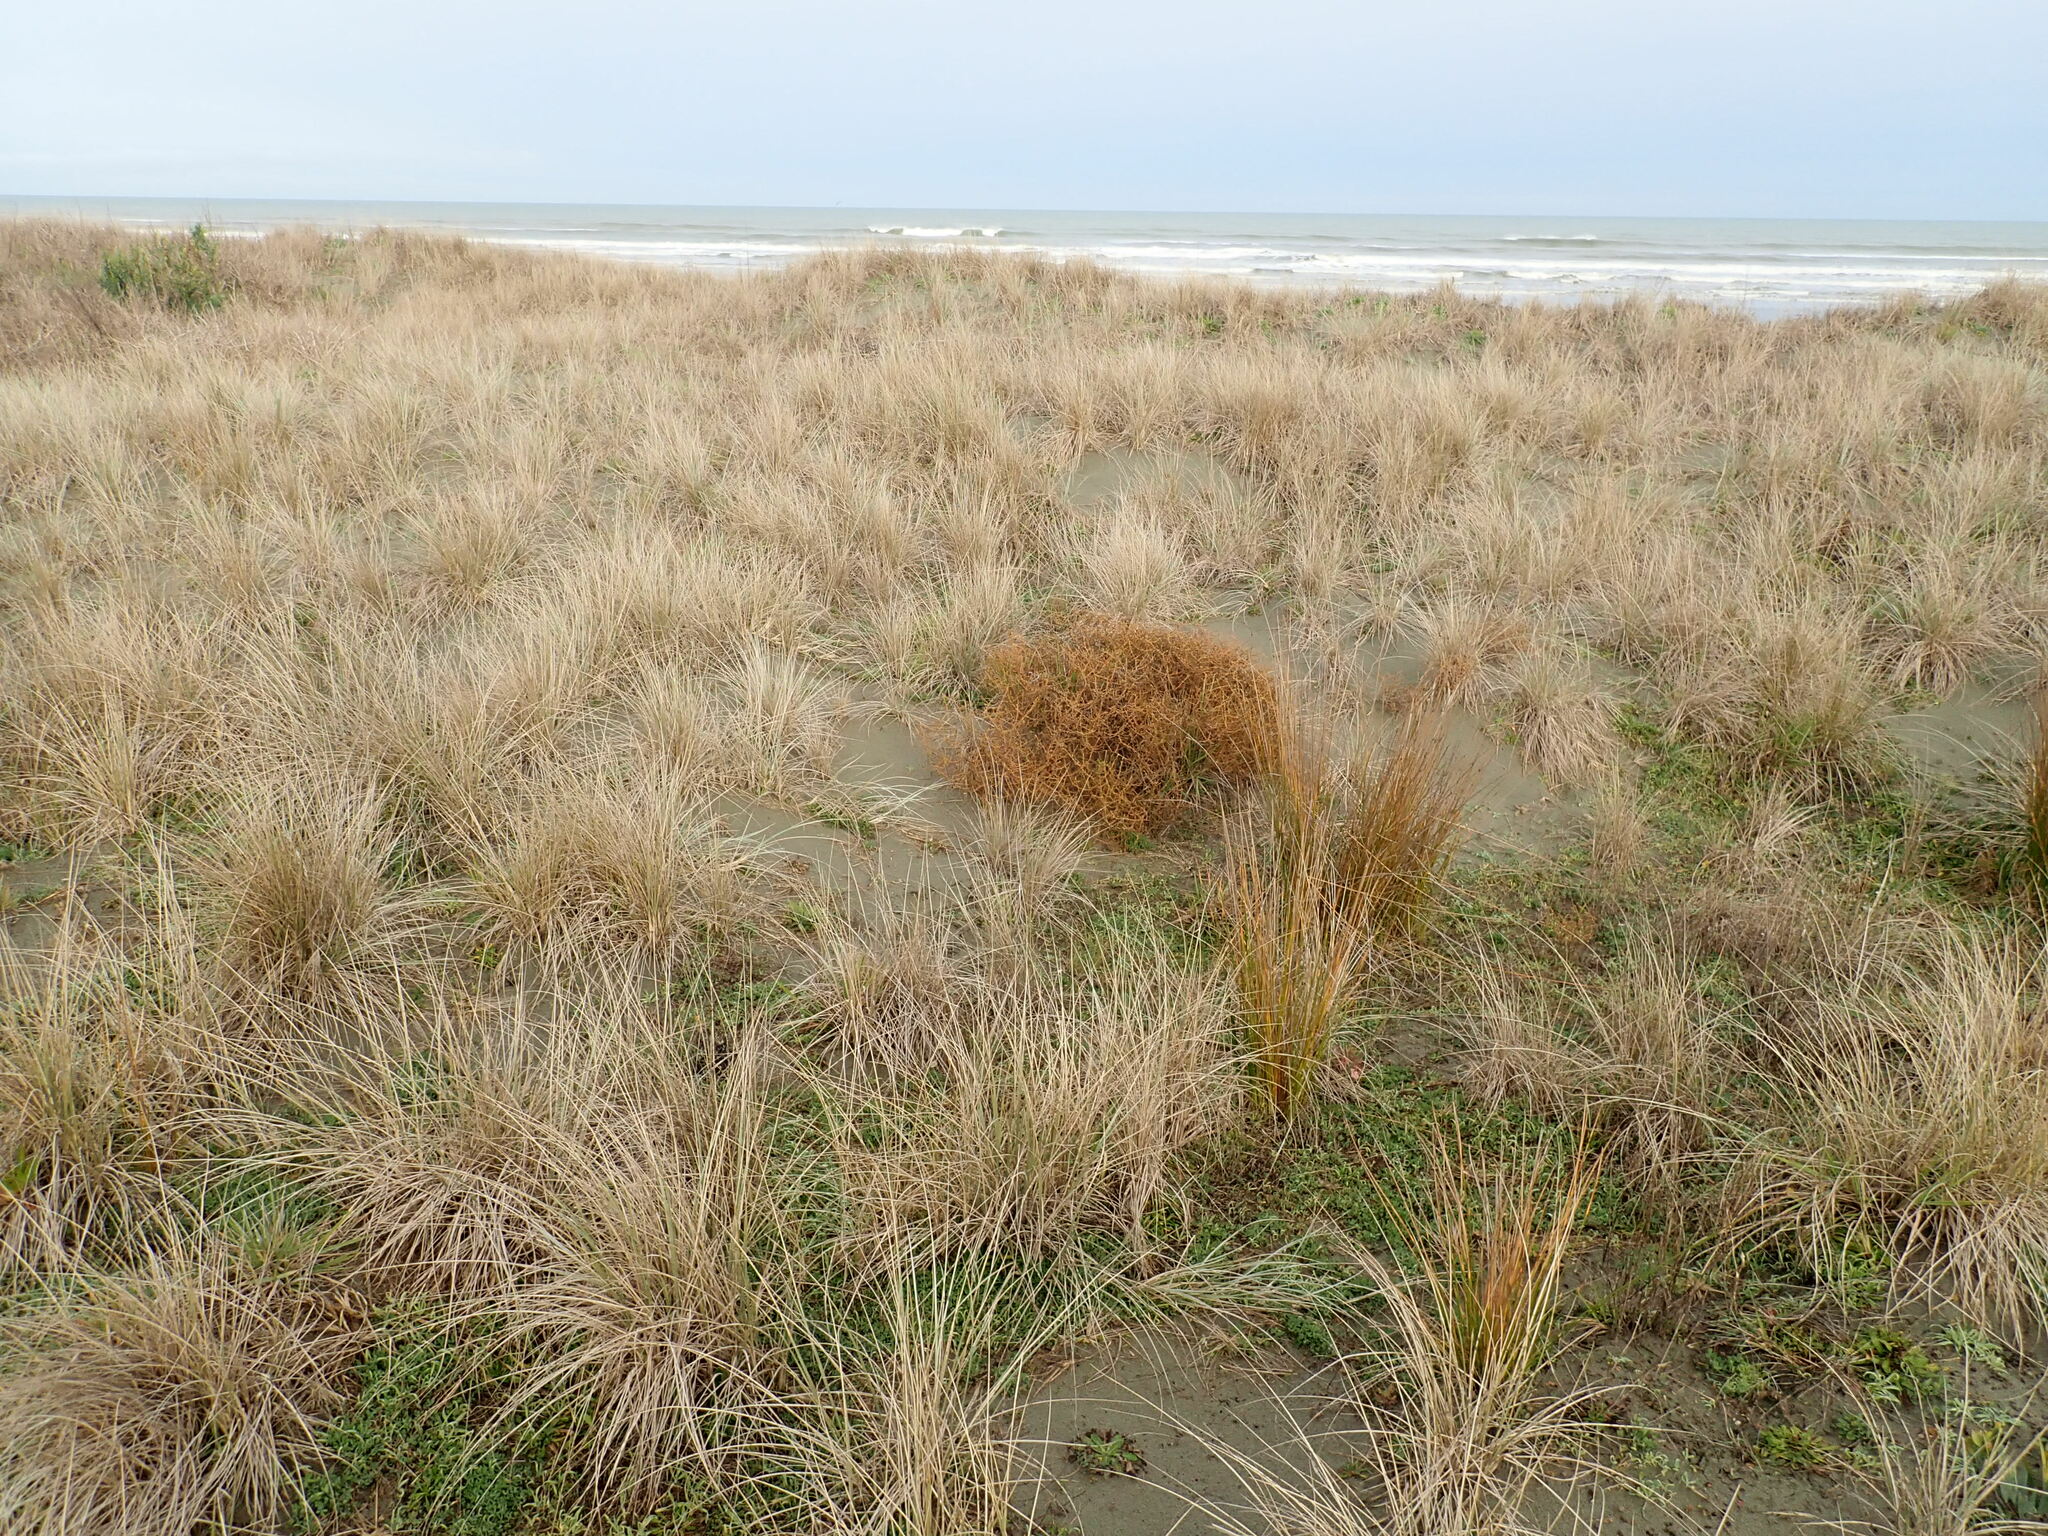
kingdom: Plantae
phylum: Tracheophyta
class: Magnoliopsida
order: Gentianales
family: Rubiaceae
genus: Coprosma
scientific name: Coprosma acerosa
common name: Sand coprosma
